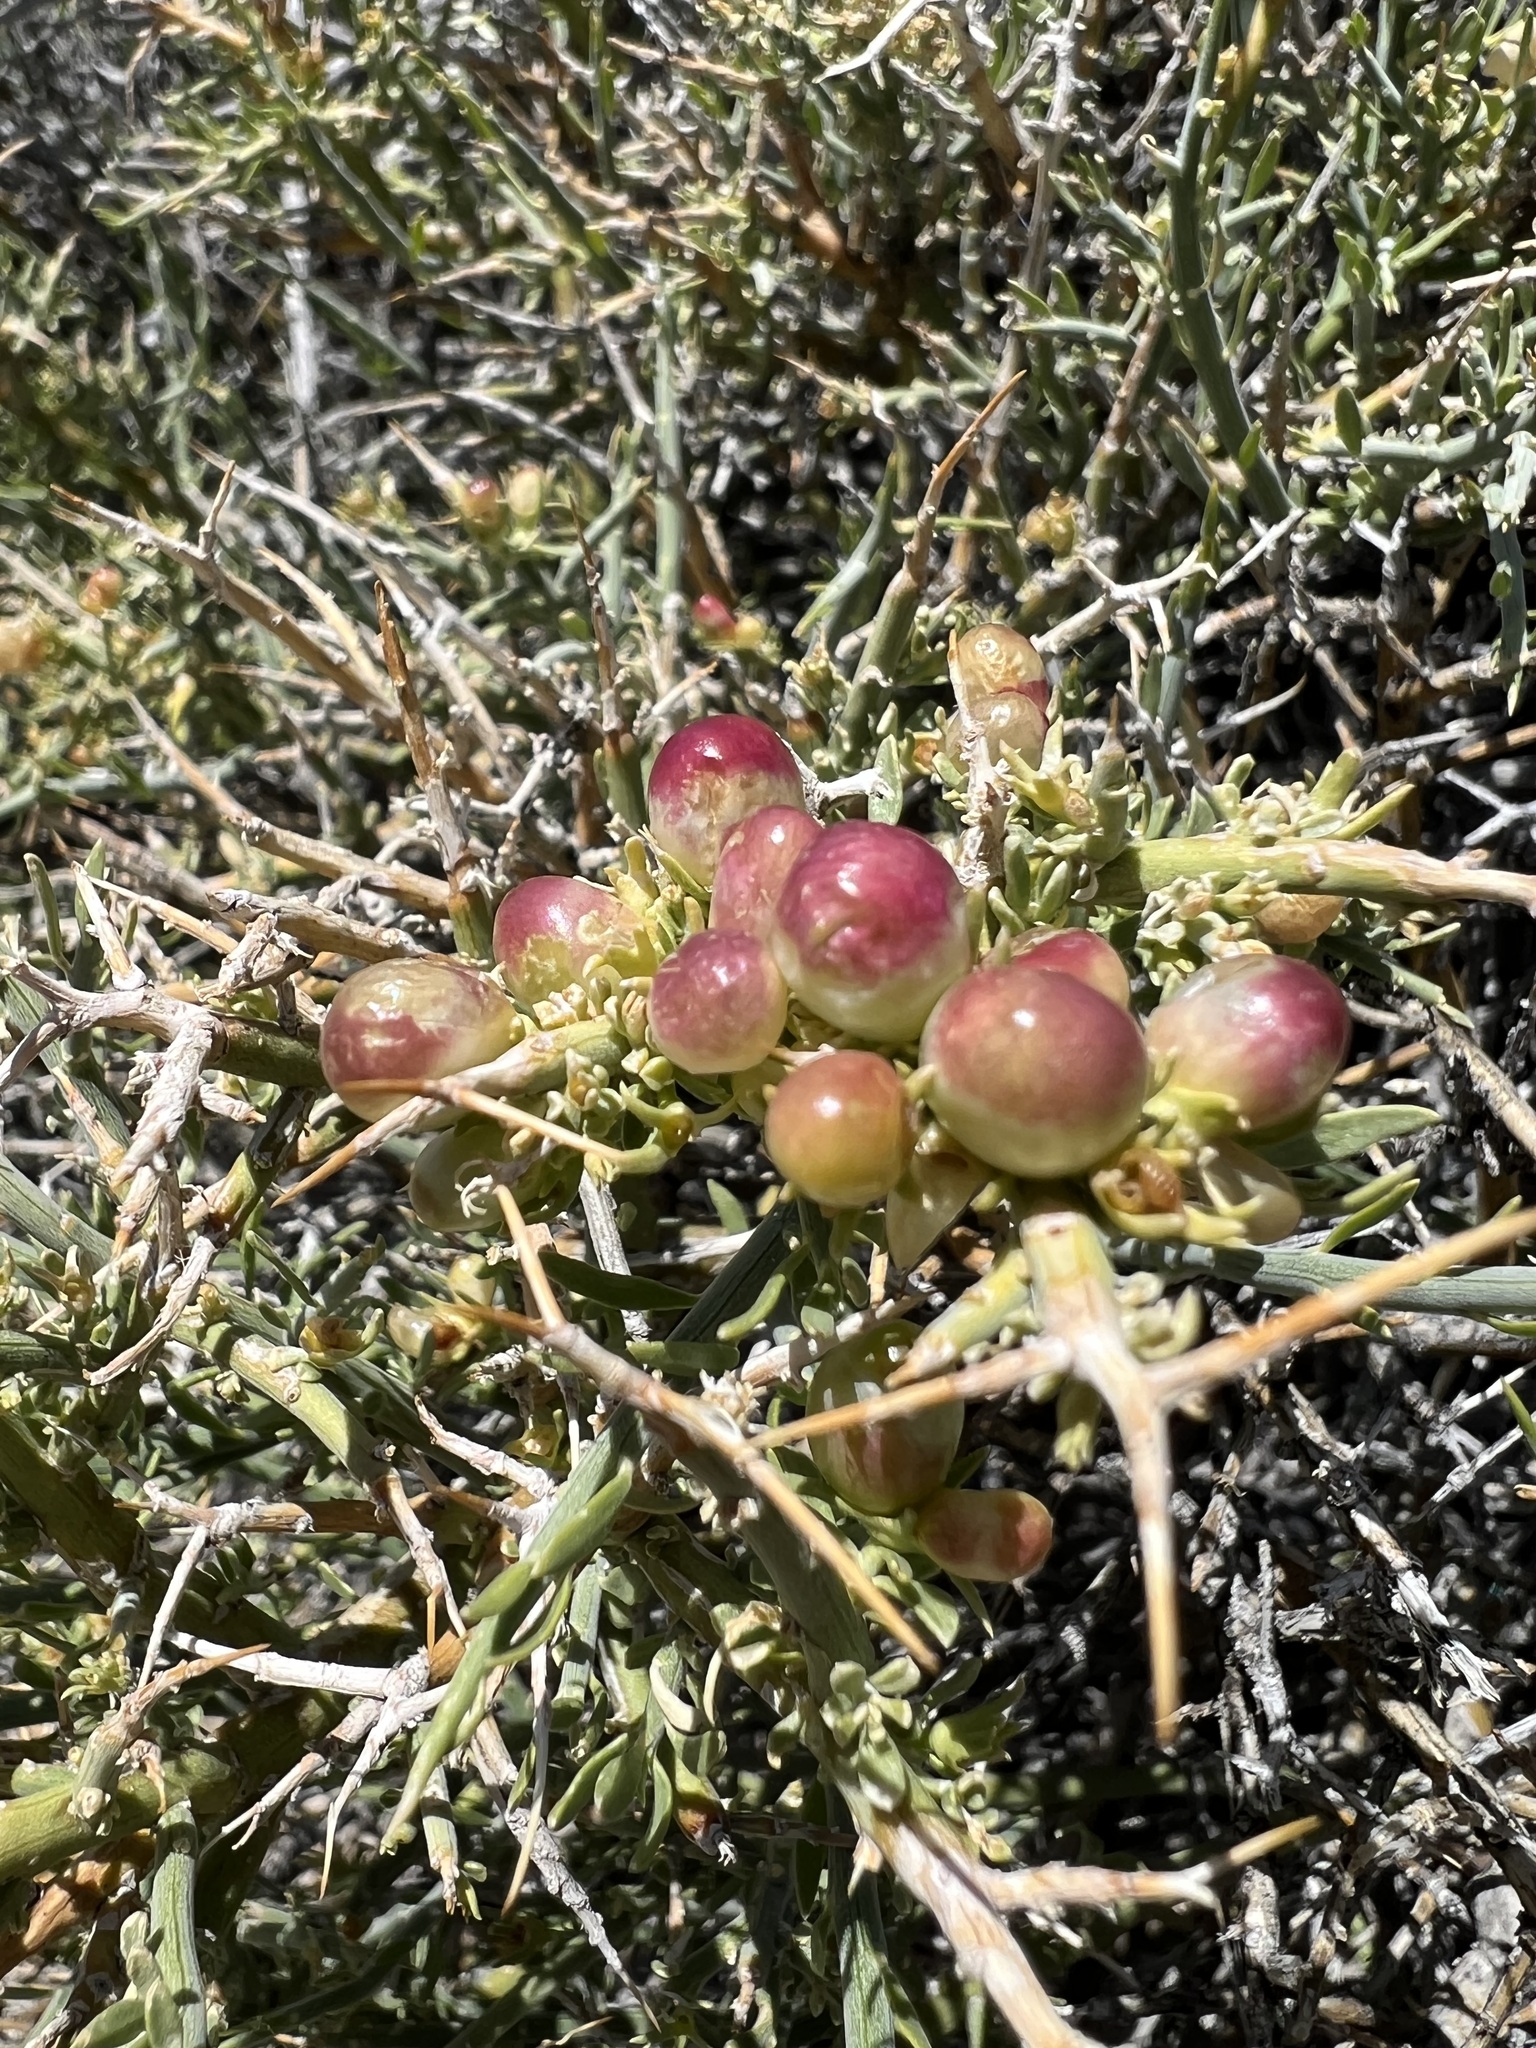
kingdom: Plantae
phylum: Tracheophyta
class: Magnoliopsida
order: Lamiales
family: Oleaceae
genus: Menodora
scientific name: Menodora spinescens
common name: Spiny menodora
